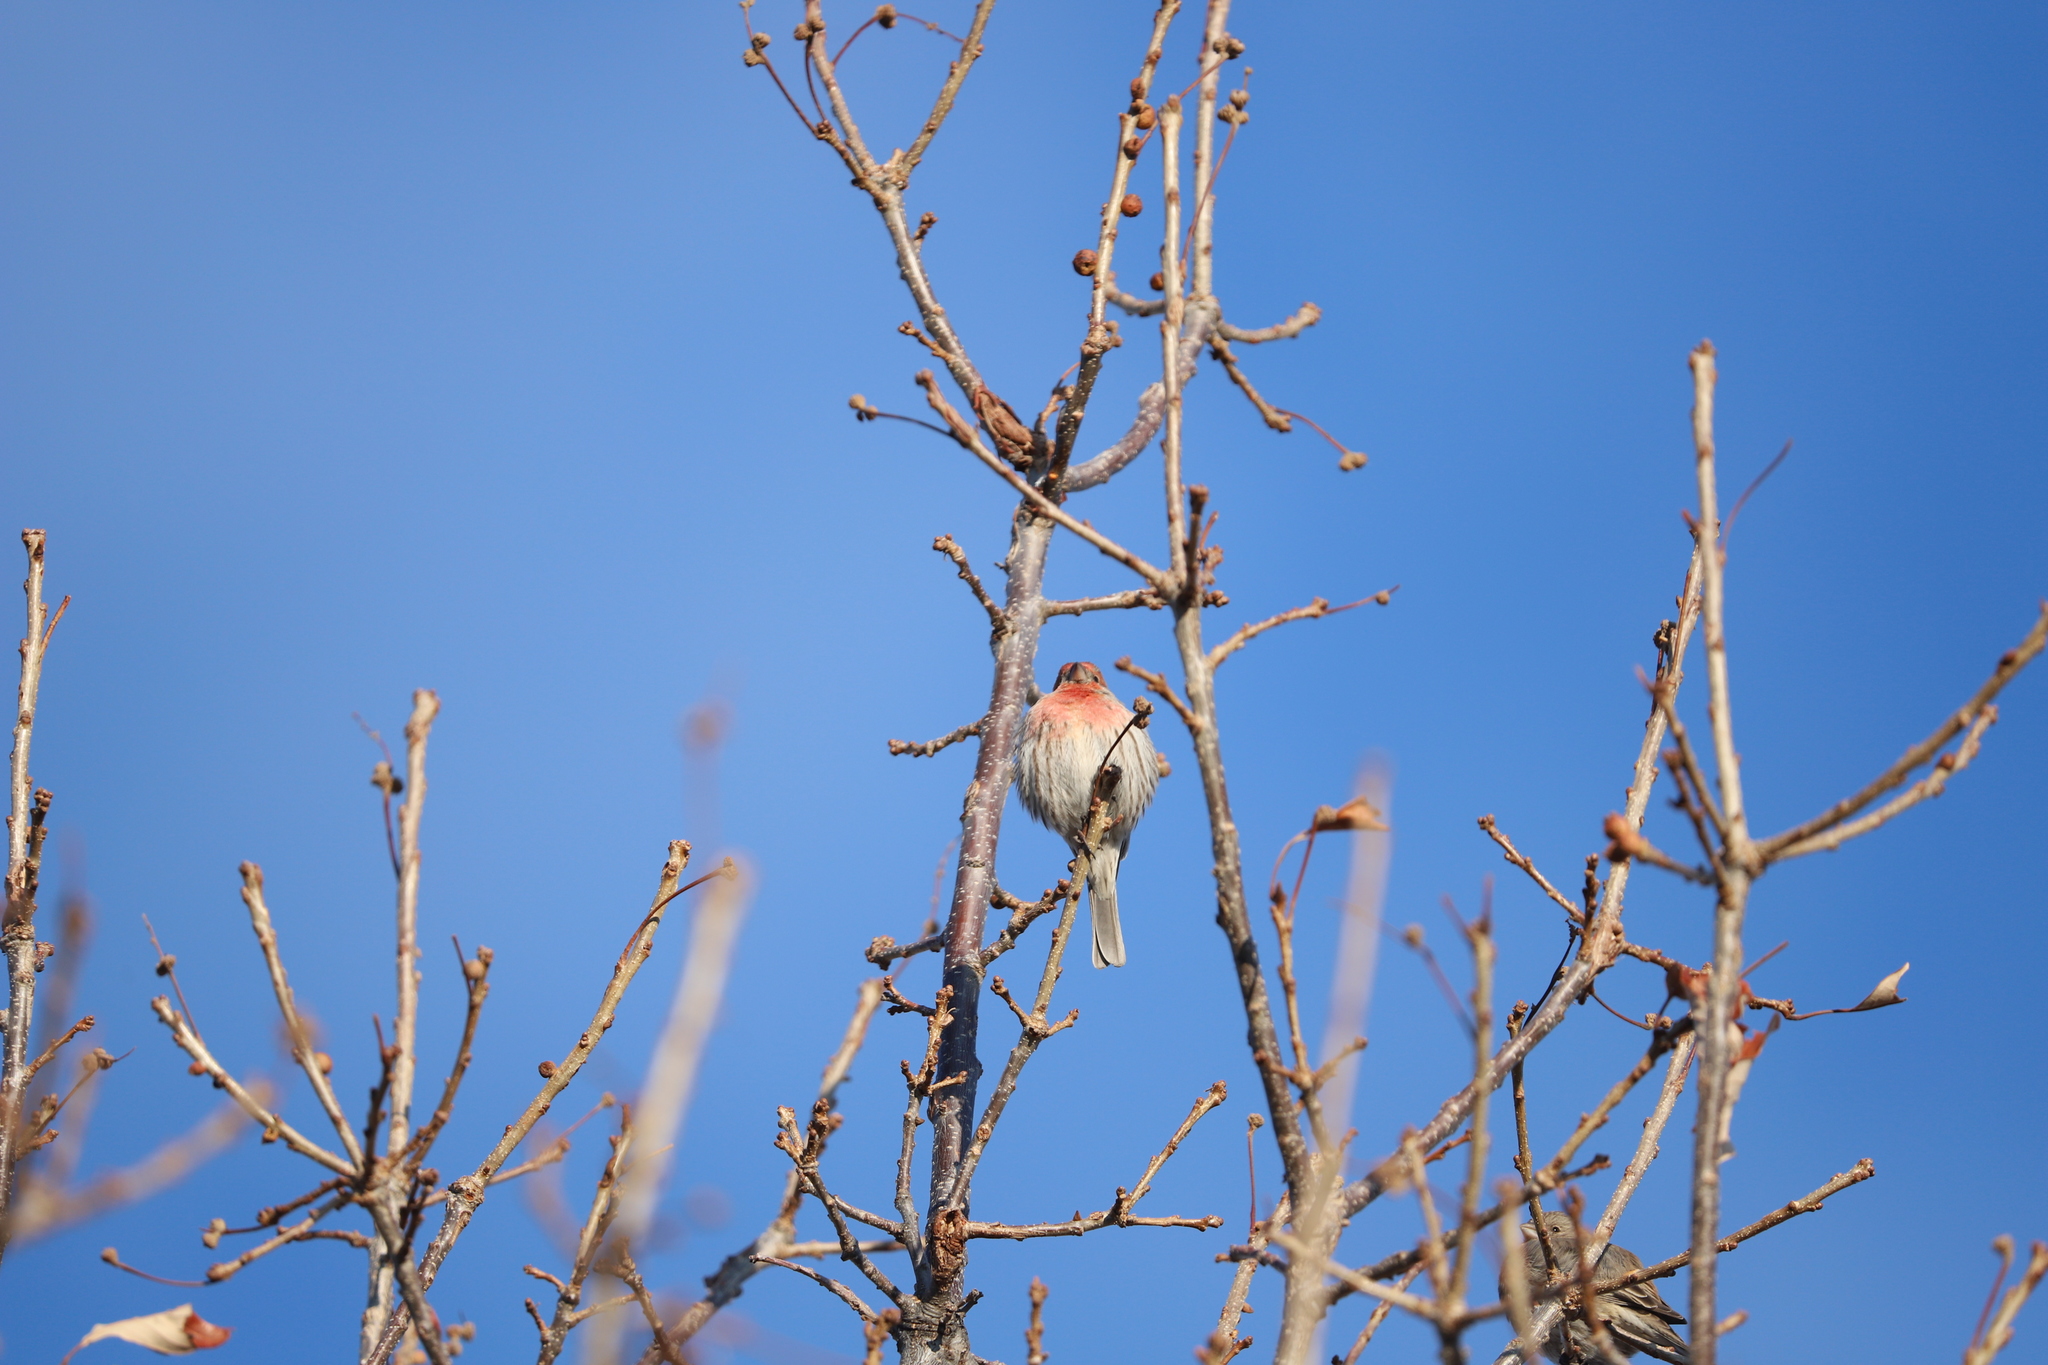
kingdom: Animalia
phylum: Chordata
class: Aves
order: Passeriformes
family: Fringillidae
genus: Haemorhous
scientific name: Haemorhous mexicanus
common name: House finch
